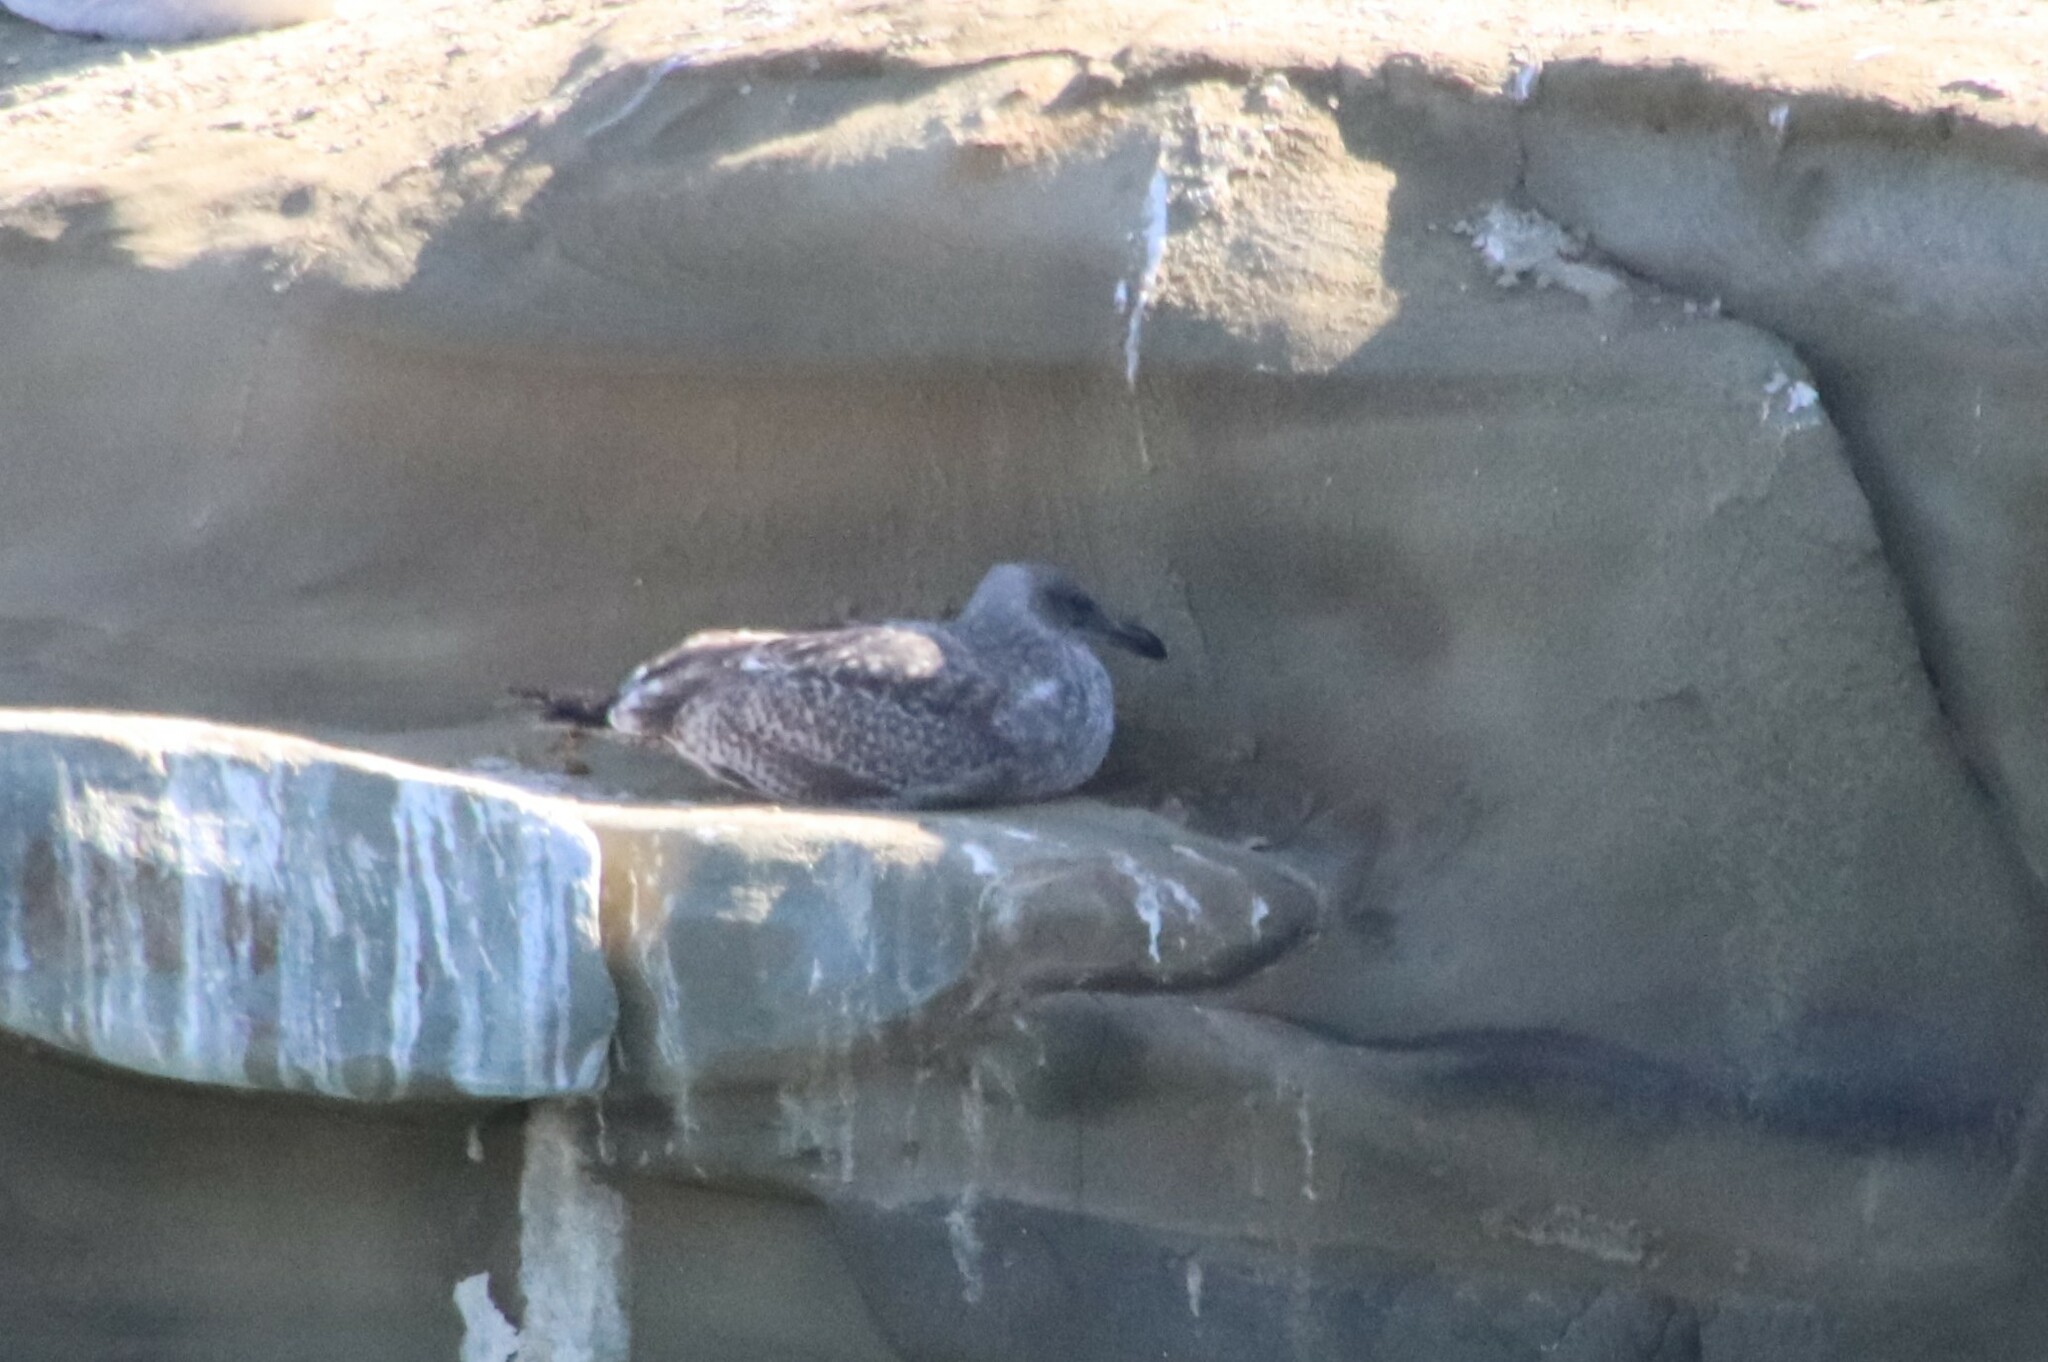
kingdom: Animalia
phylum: Chordata
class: Aves
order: Charadriiformes
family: Laridae
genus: Larus
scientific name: Larus occidentalis
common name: Western gull
